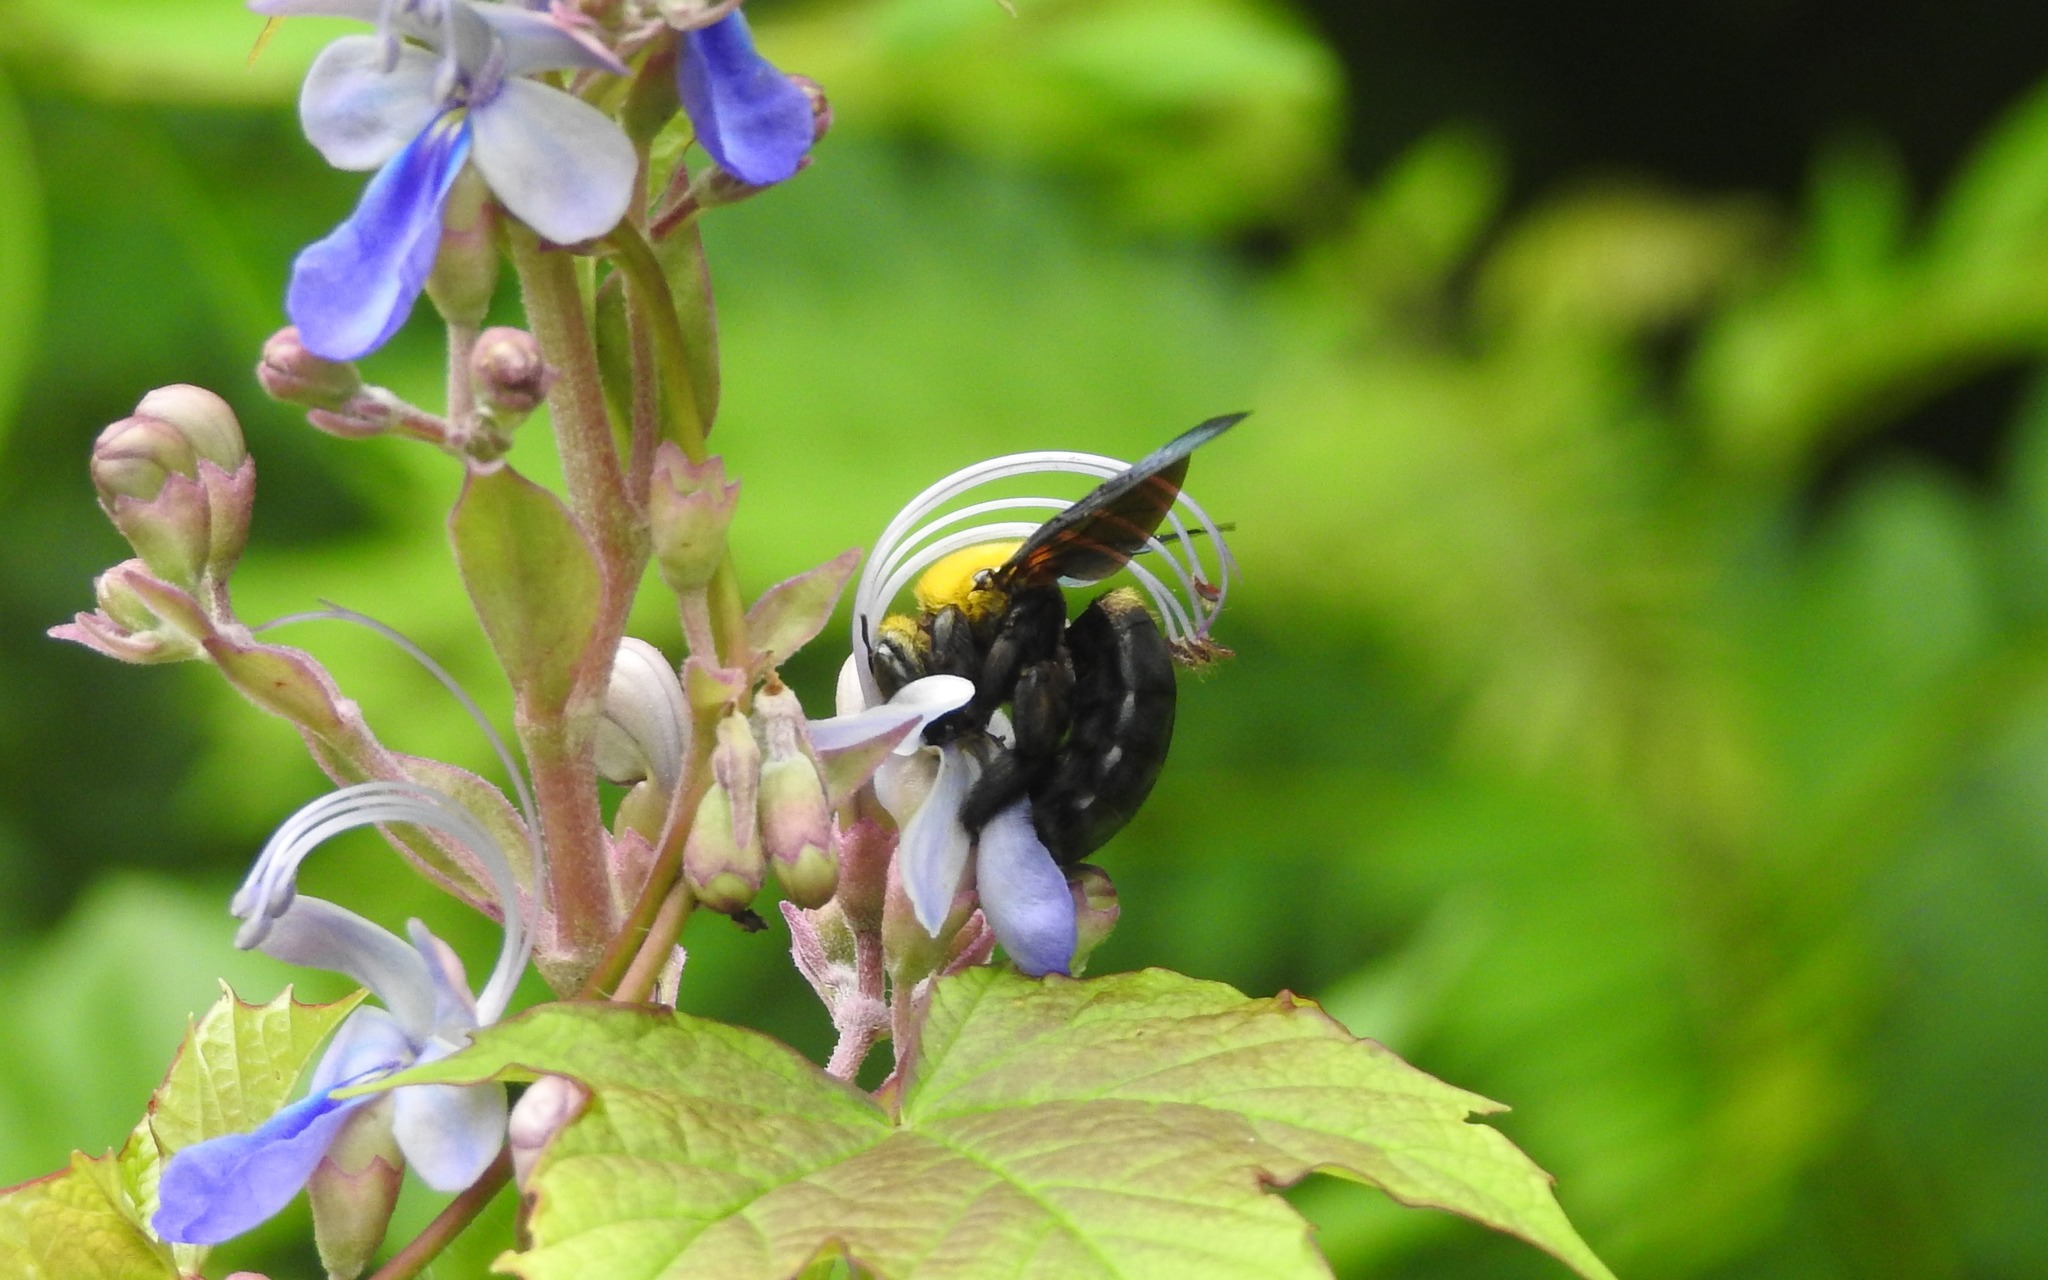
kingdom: Animalia
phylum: Arthropoda
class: Insecta
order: Hymenoptera
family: Apidae
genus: Xylocopa
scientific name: Xylocopa ruficornis
